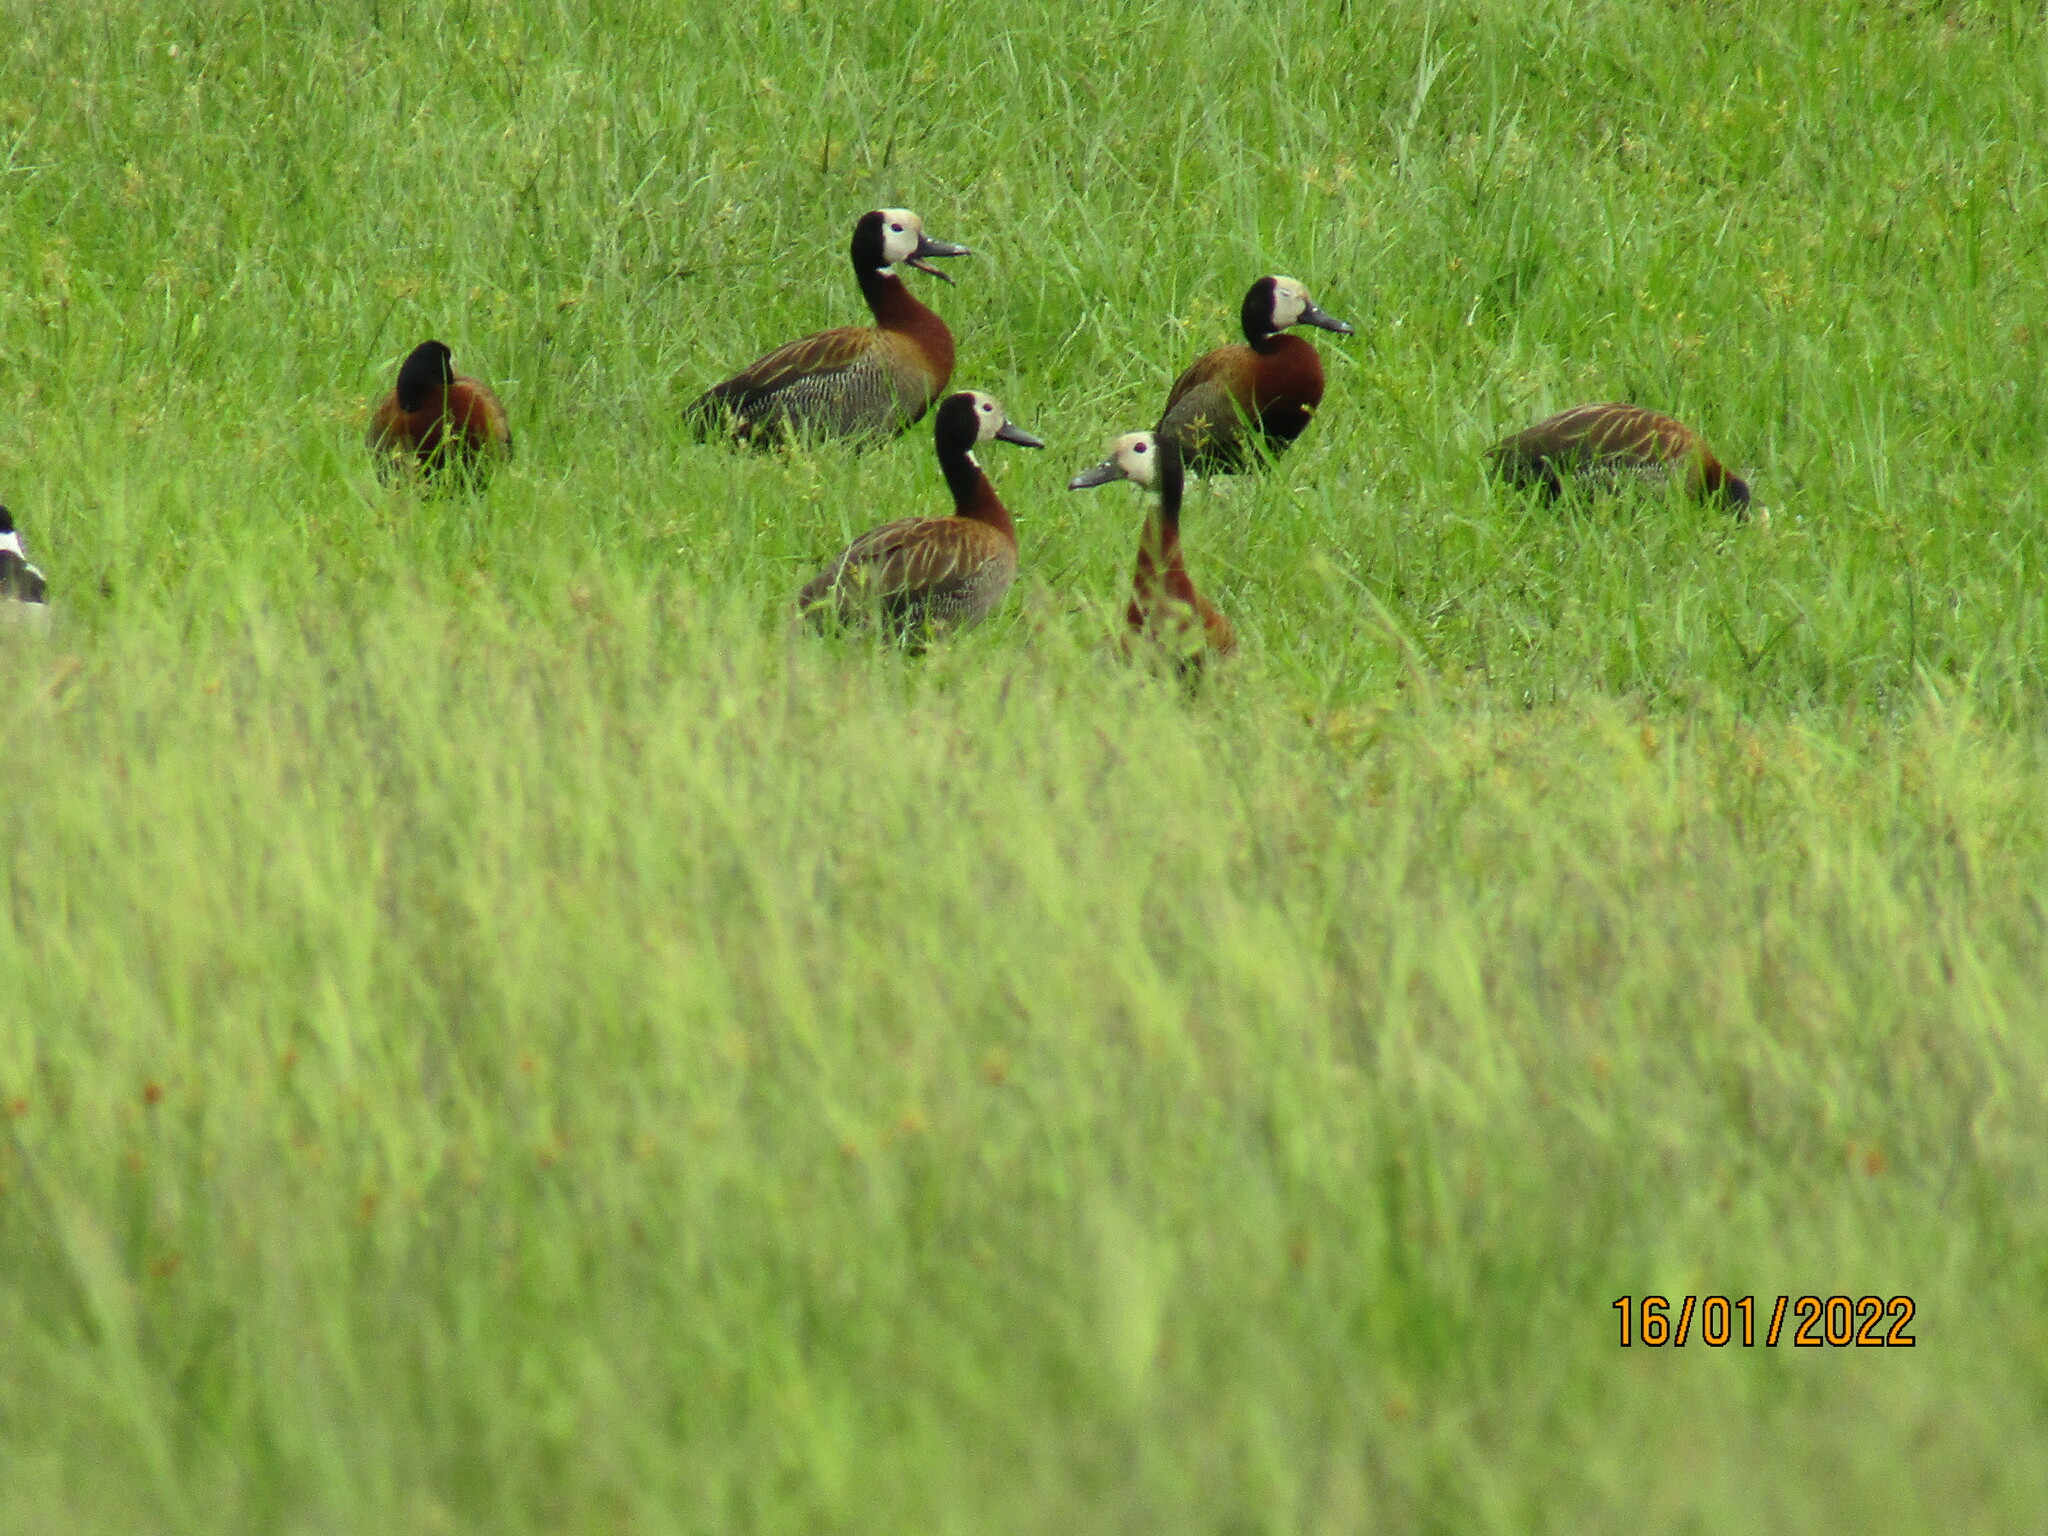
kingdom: Animalia
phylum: Chordata
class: Aves
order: Anseriformes
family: Anatidae
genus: Dendrocygna
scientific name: Dendrocygna viduata
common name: White-faced whistling duck
